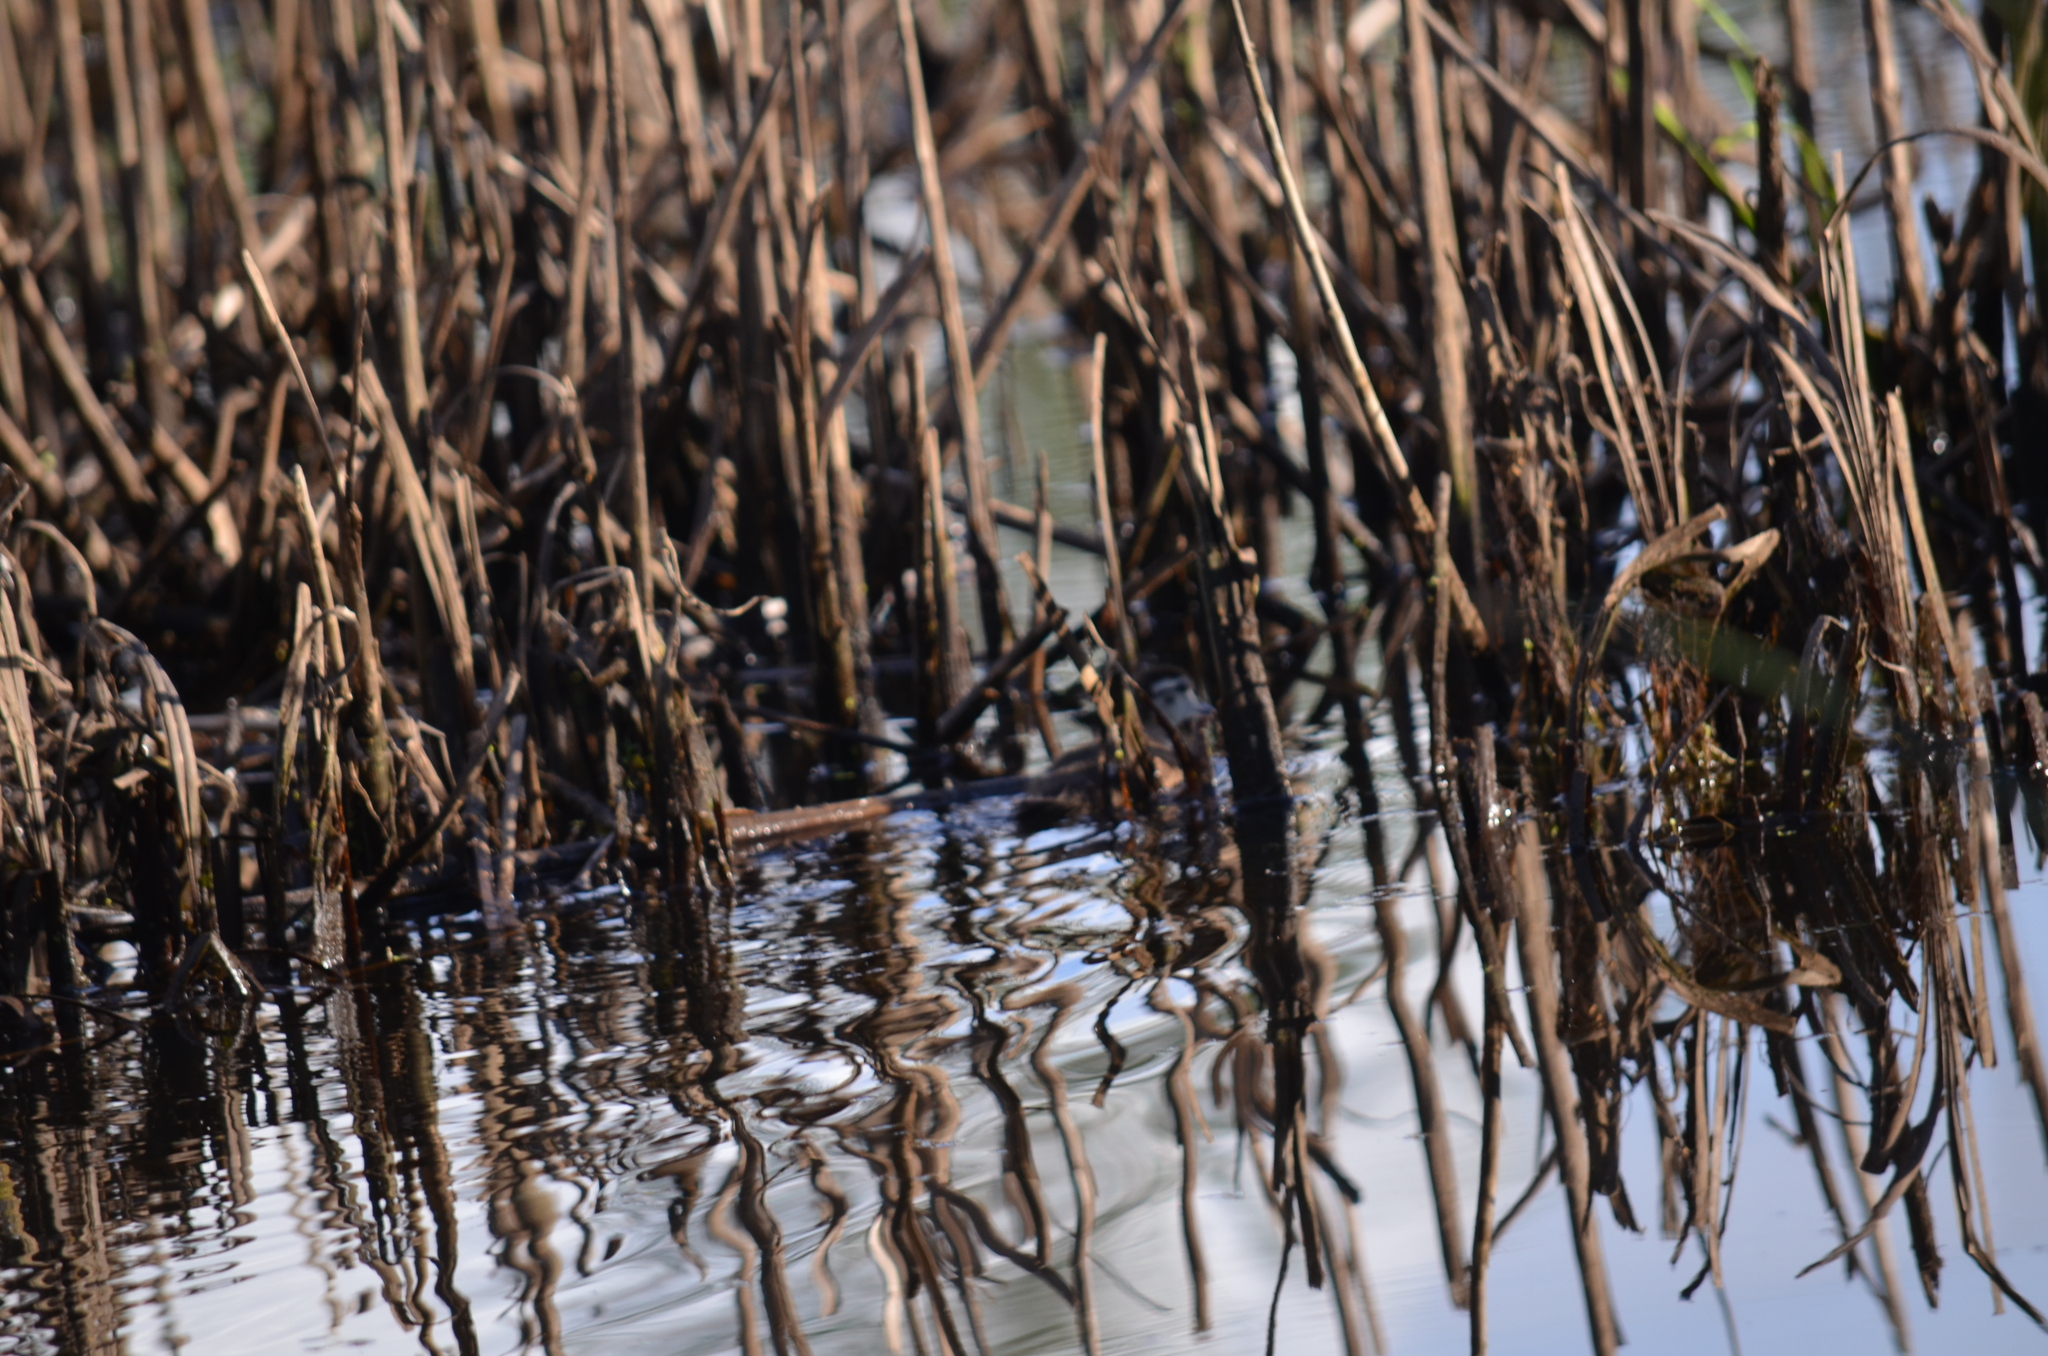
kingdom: Animalia
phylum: Chordata
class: Aves
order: Anseriformes
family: Anatidae
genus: Aix
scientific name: Aix sponsa
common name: Wood duck
